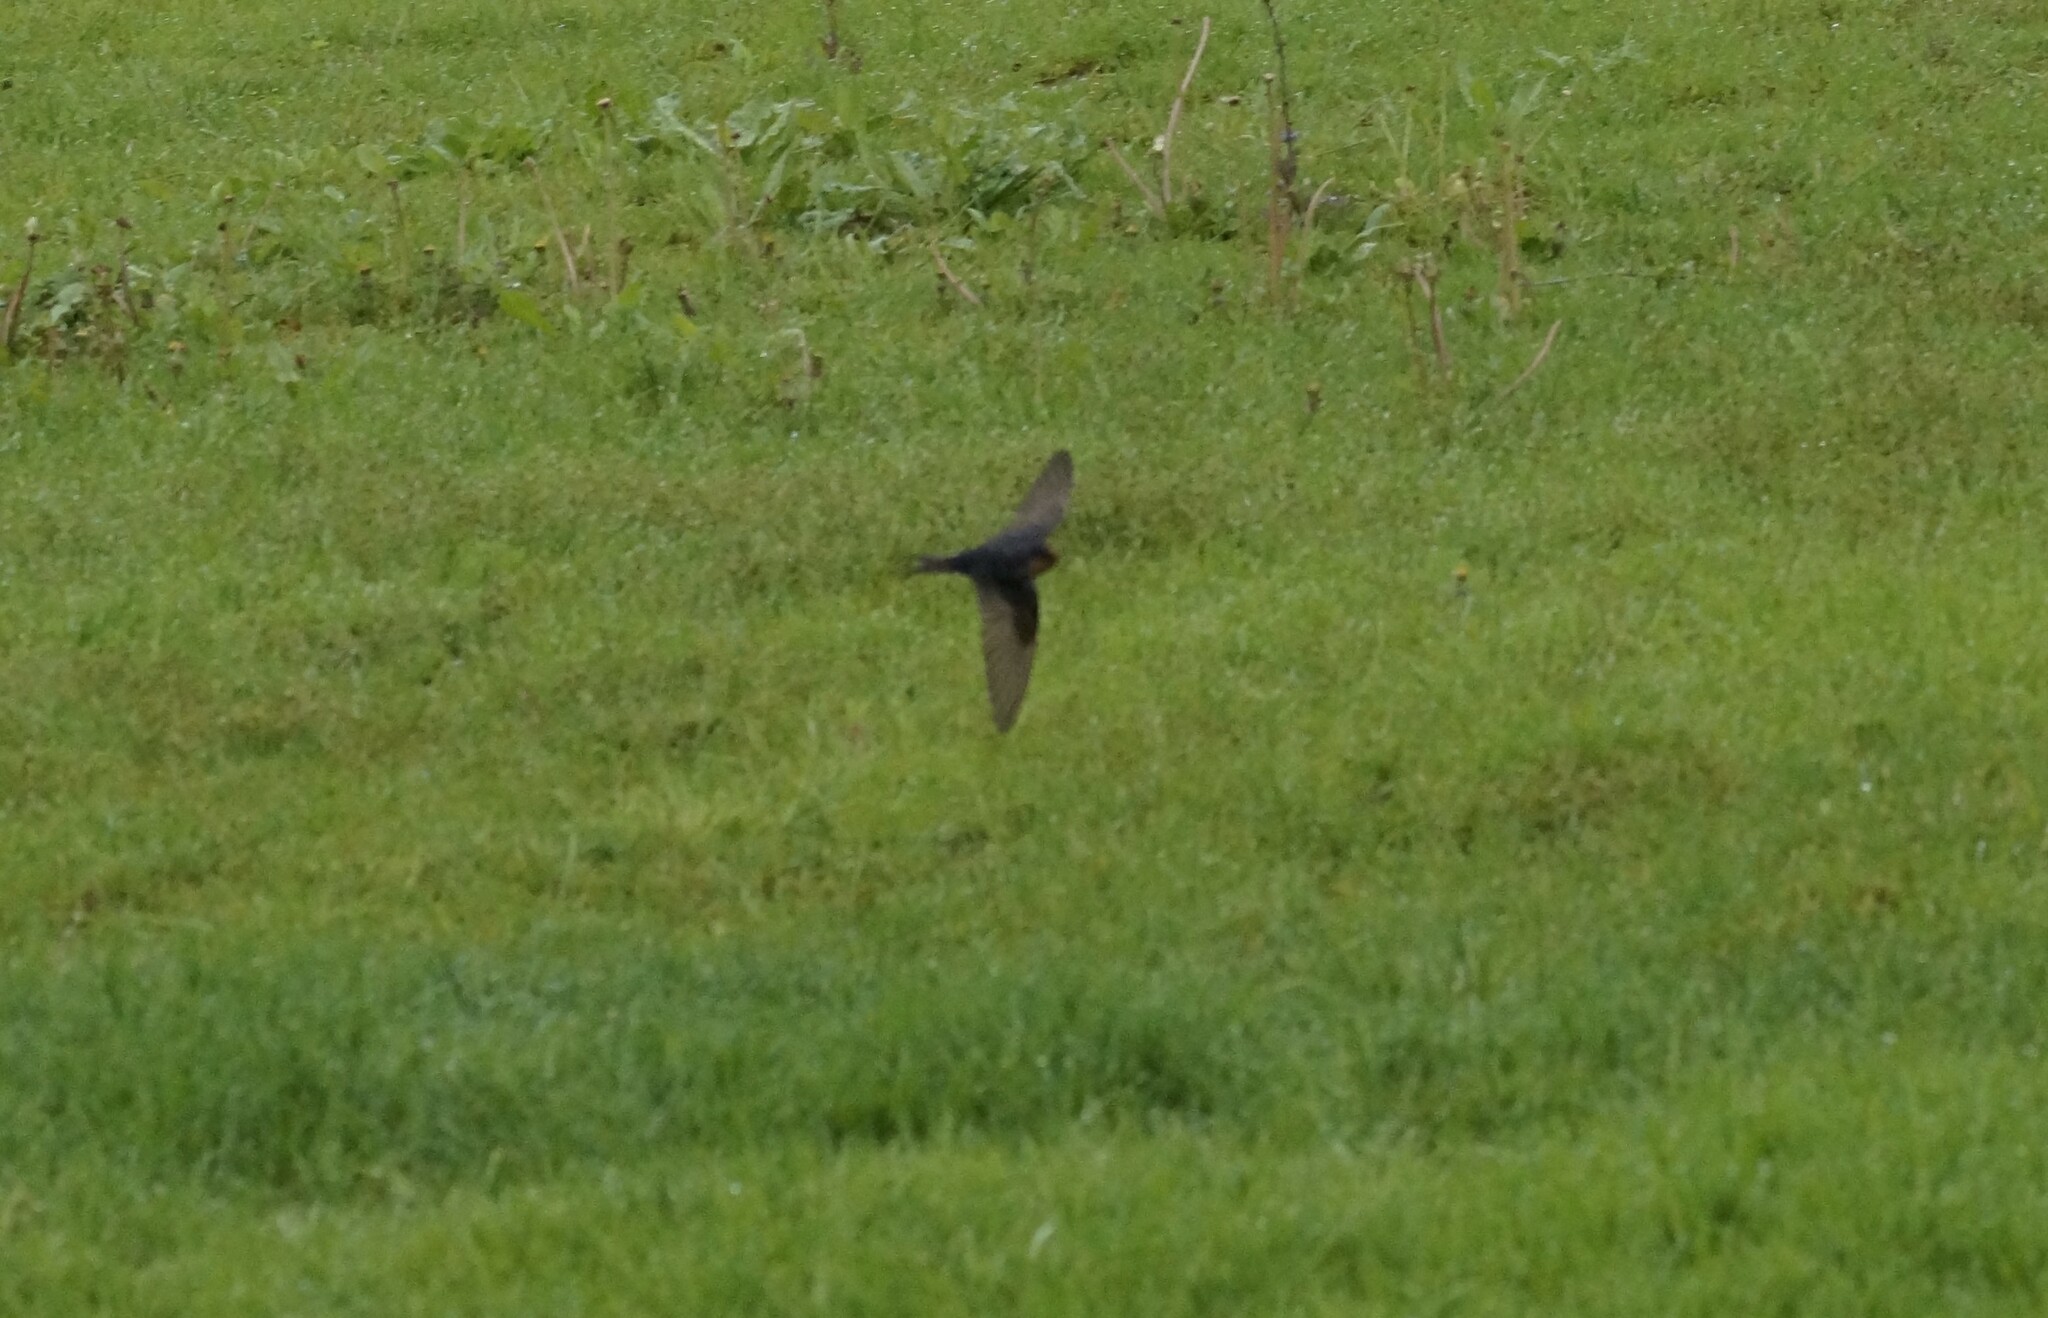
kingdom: Animalia
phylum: Chordata
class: Aves
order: Passeriformes
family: Hirundinidae
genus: Hirundo
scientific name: Hirundo neoxena
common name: Welcome swallow
